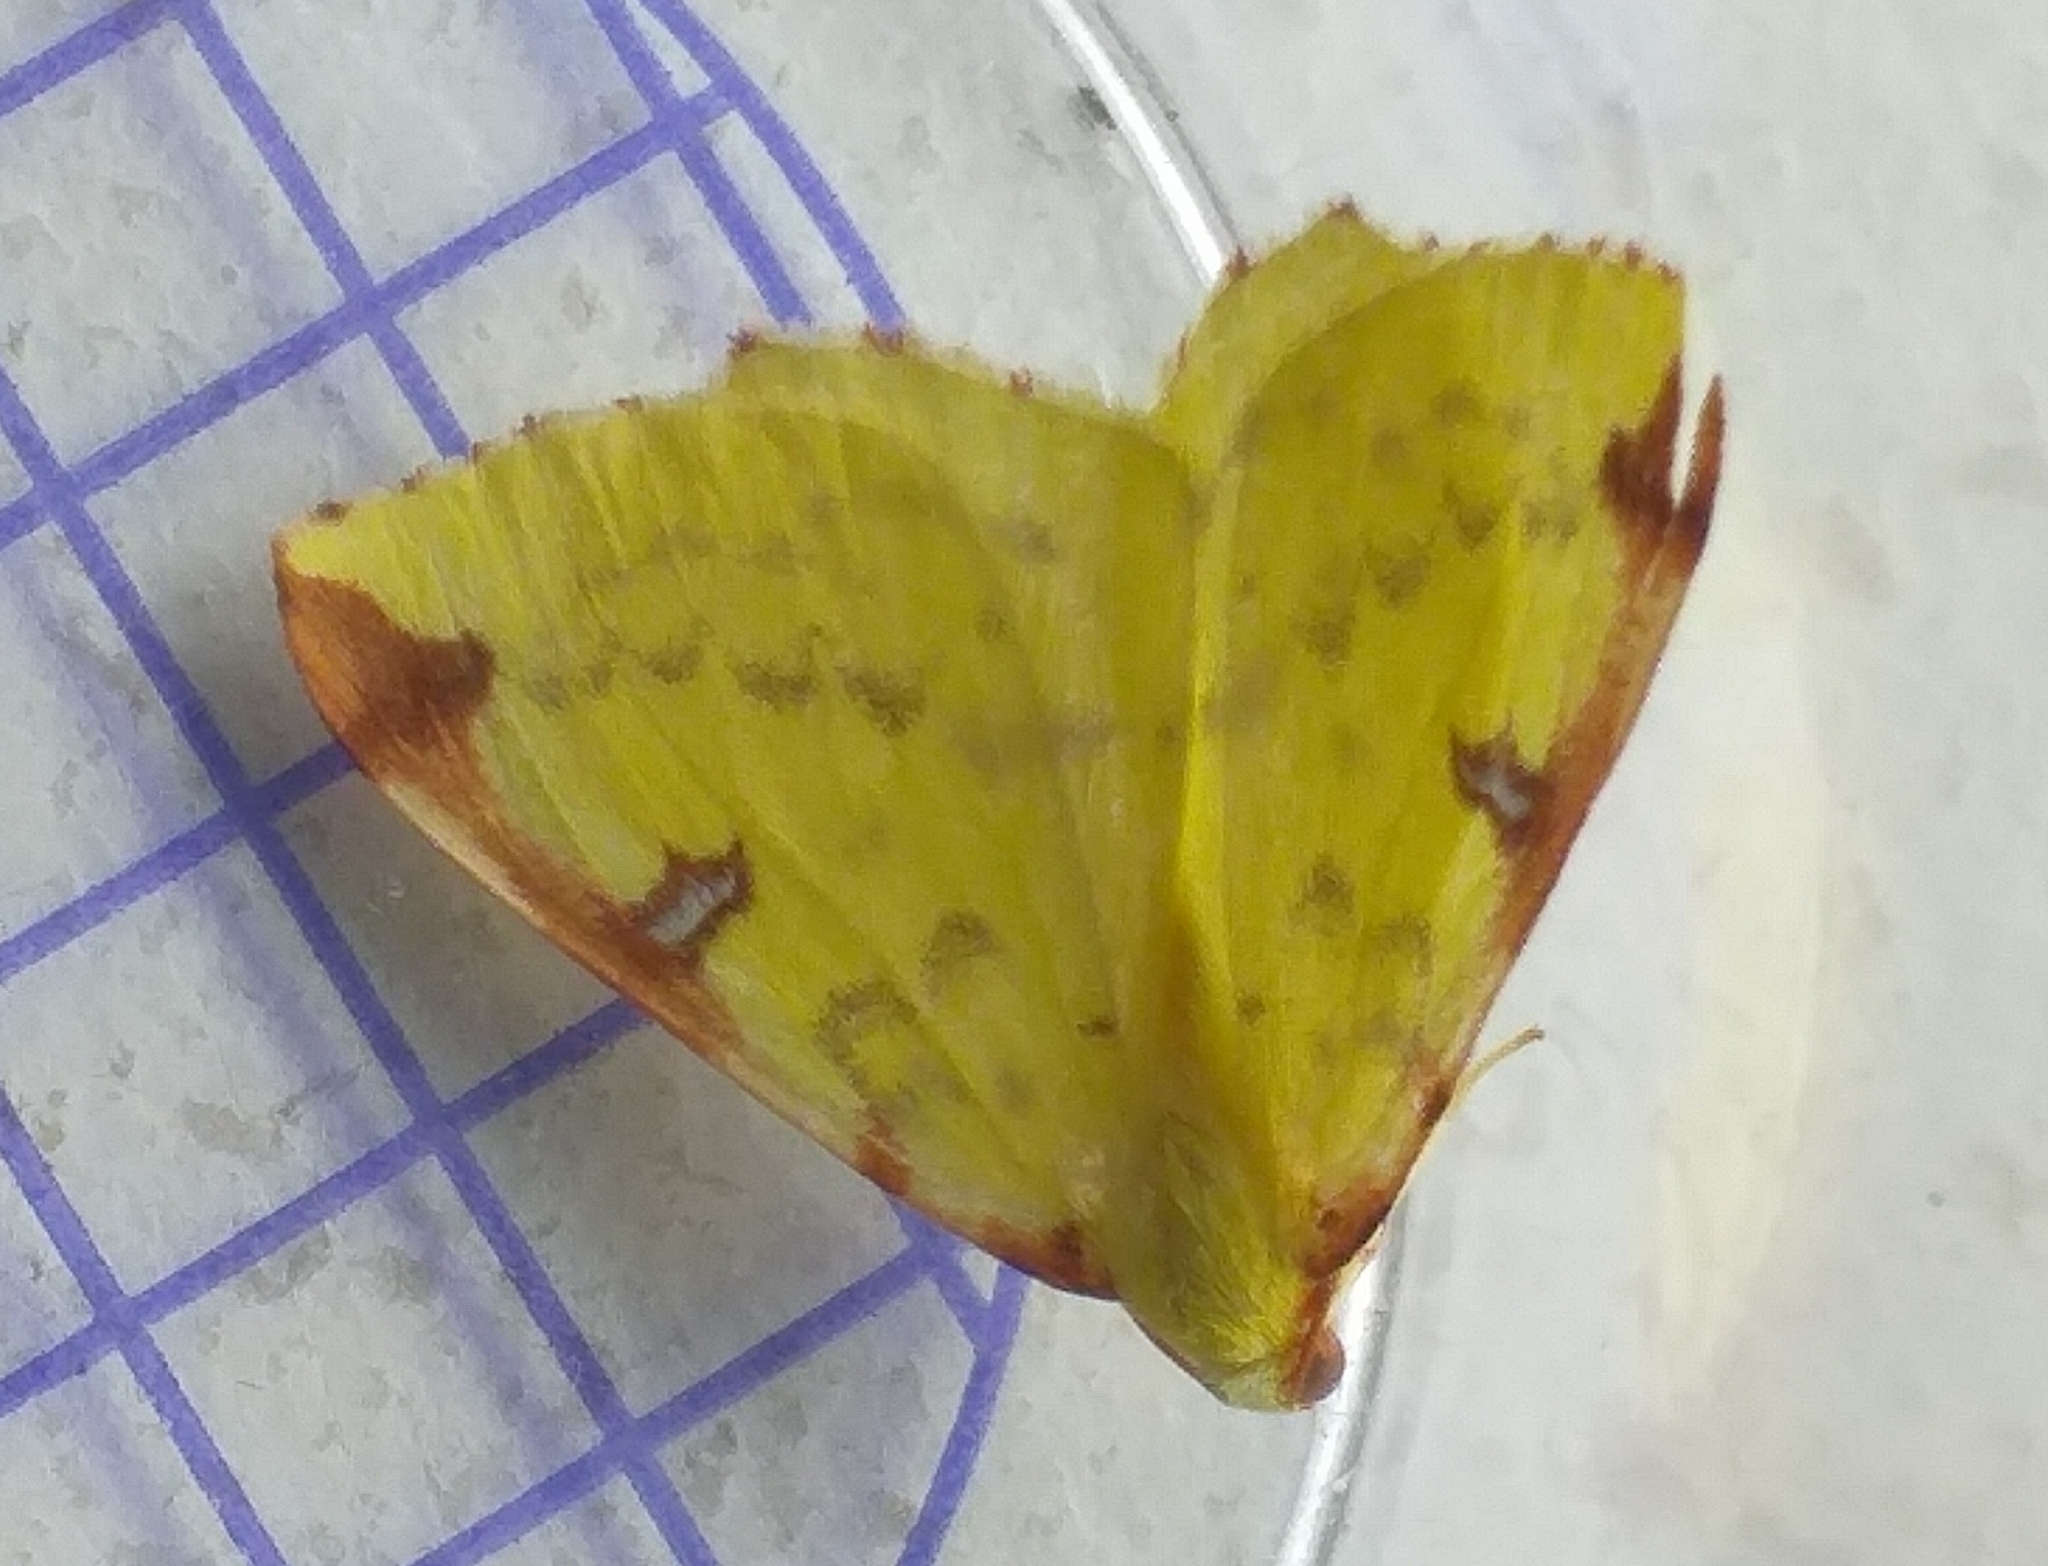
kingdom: Animalia
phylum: Arthropoda
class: Insecta
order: Lepidoptera
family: Geometridae
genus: Opisthograptis
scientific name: Opisthograptis luteolata
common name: Brimstone moth
